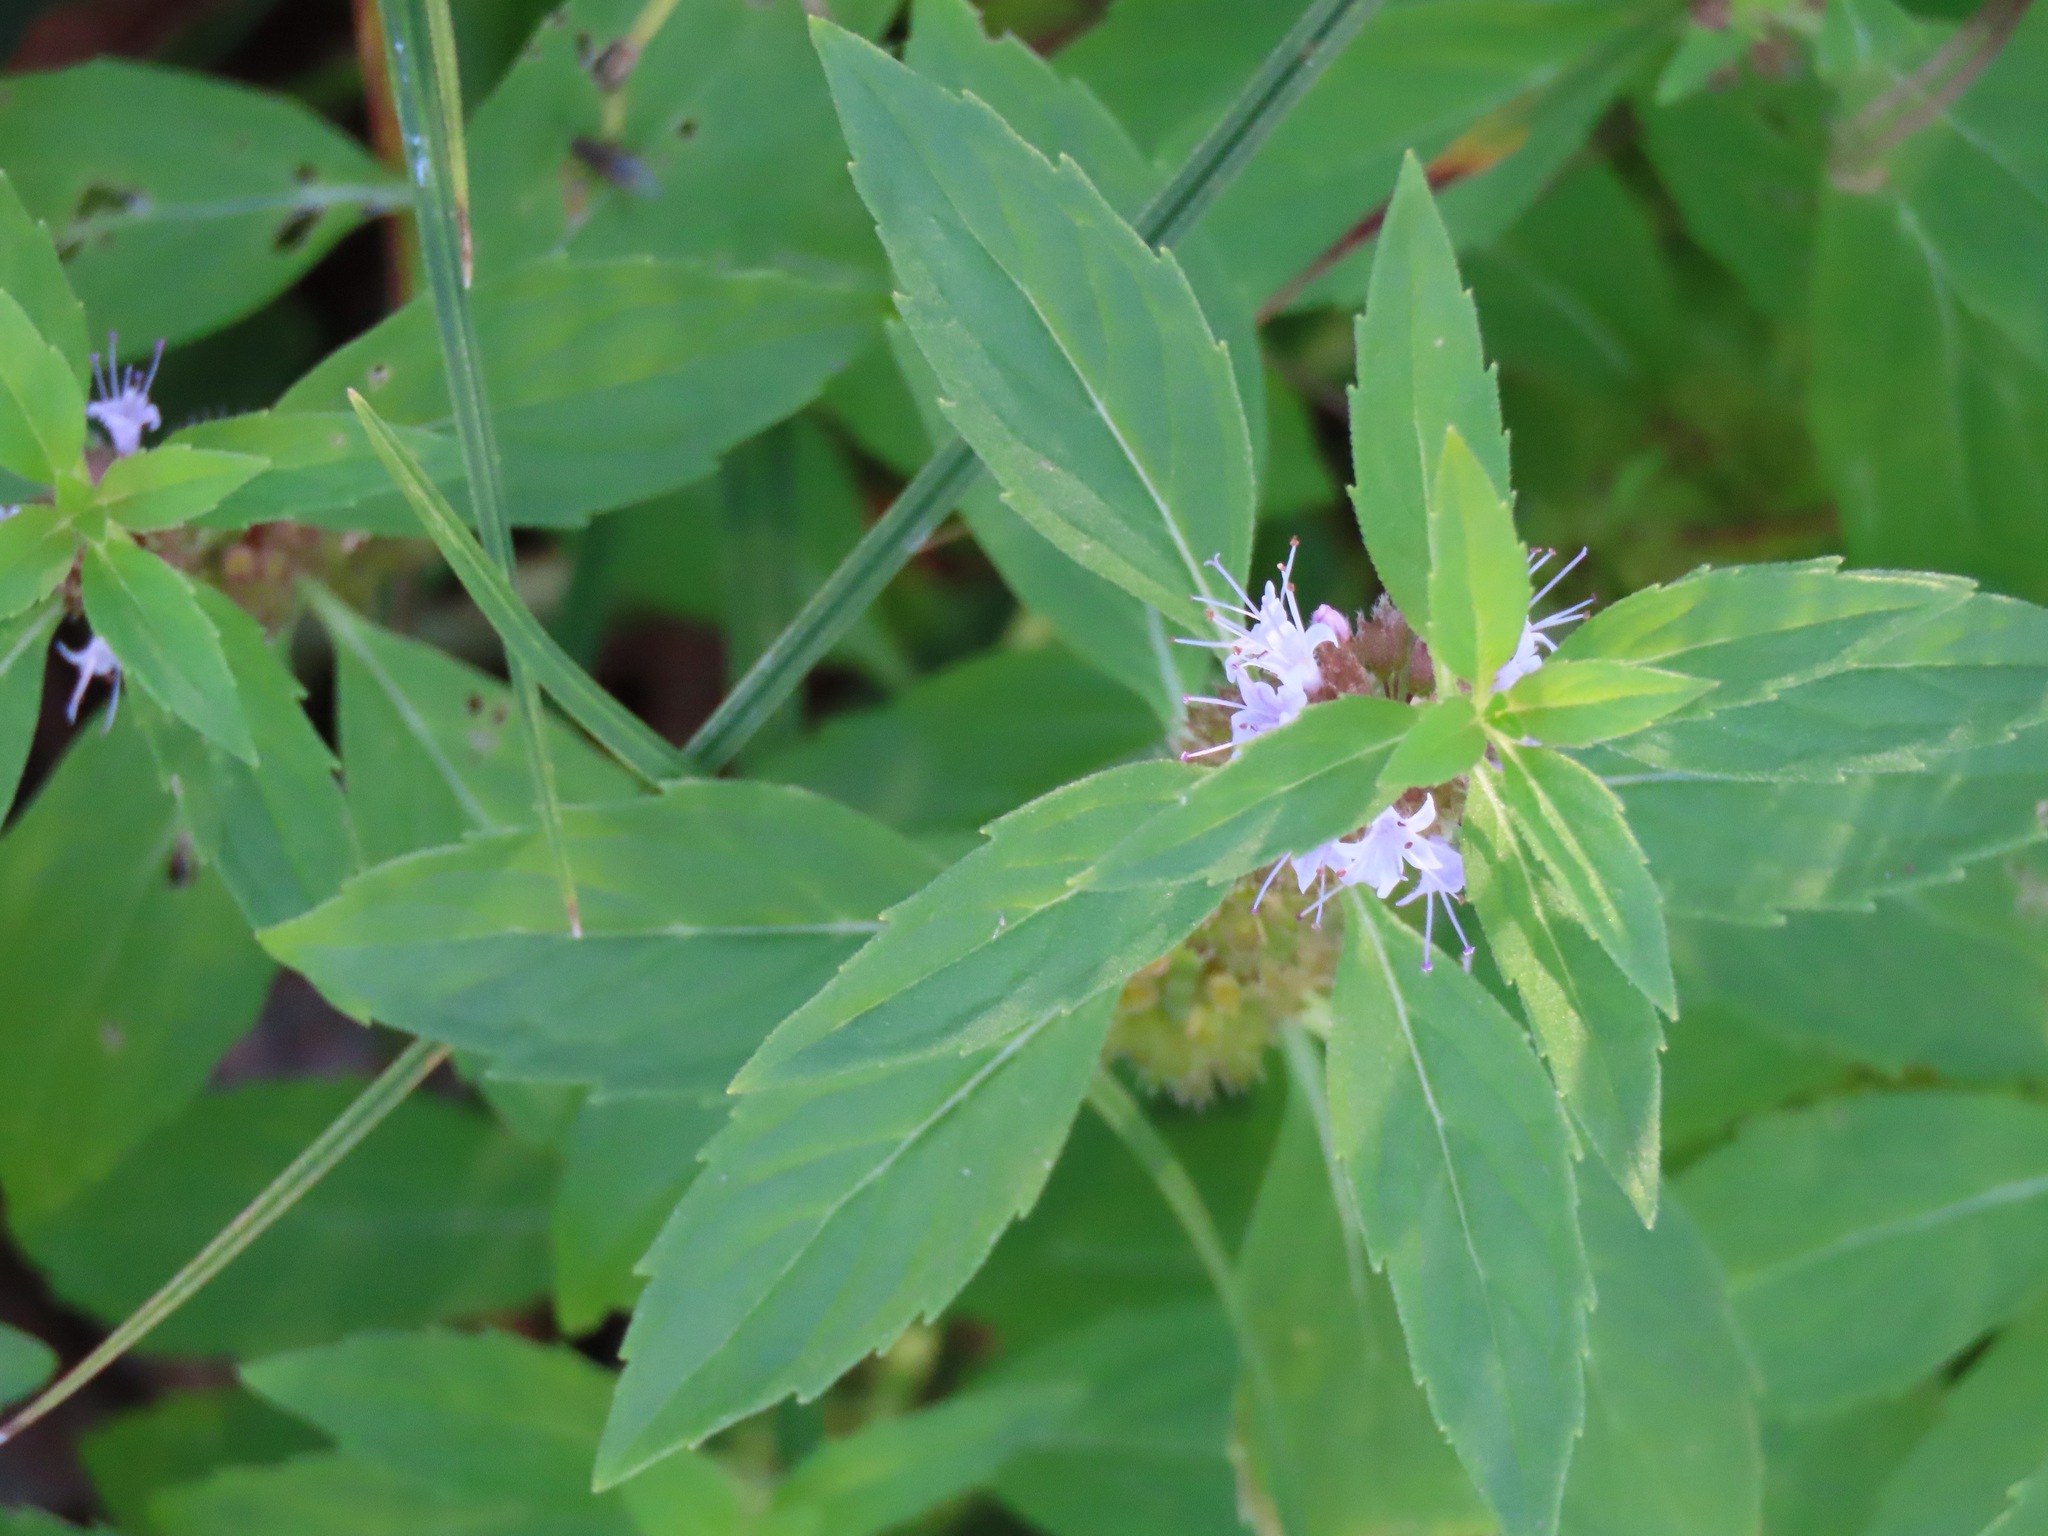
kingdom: Plantae
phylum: Tracheophyta
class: Magnoliopsida
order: Lamiales
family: Lamiaceae
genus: Mentha
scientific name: Mentha canadensis
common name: American corn mint
